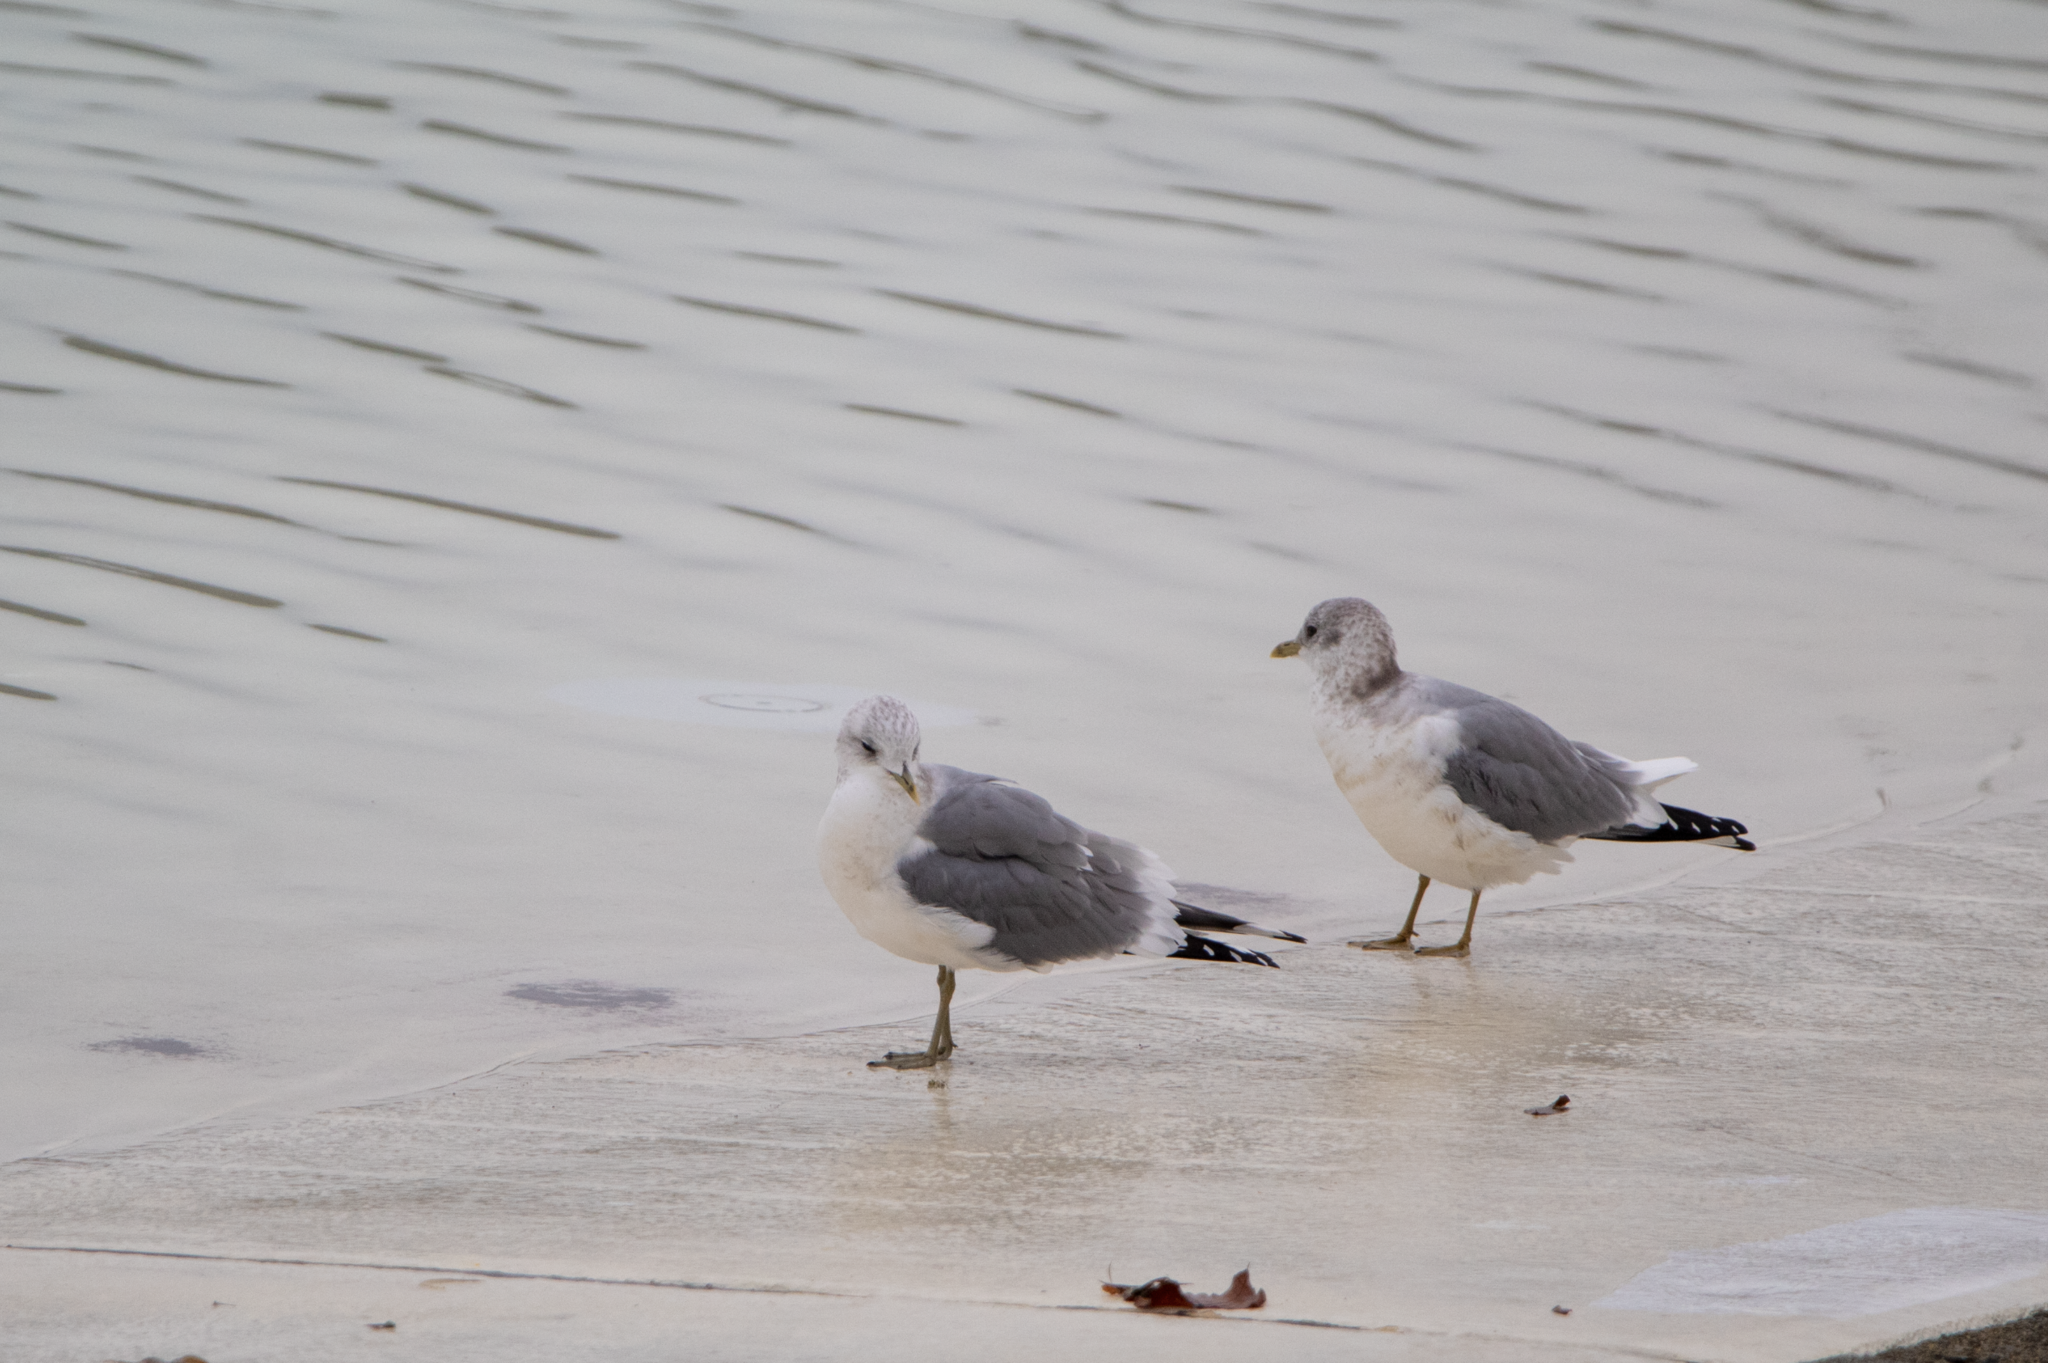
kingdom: Animalia
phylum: Chordata
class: Aves
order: Charadriiformes
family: Laridae
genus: Larus
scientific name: Larus brachyrhynchus
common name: Short-billed gull
